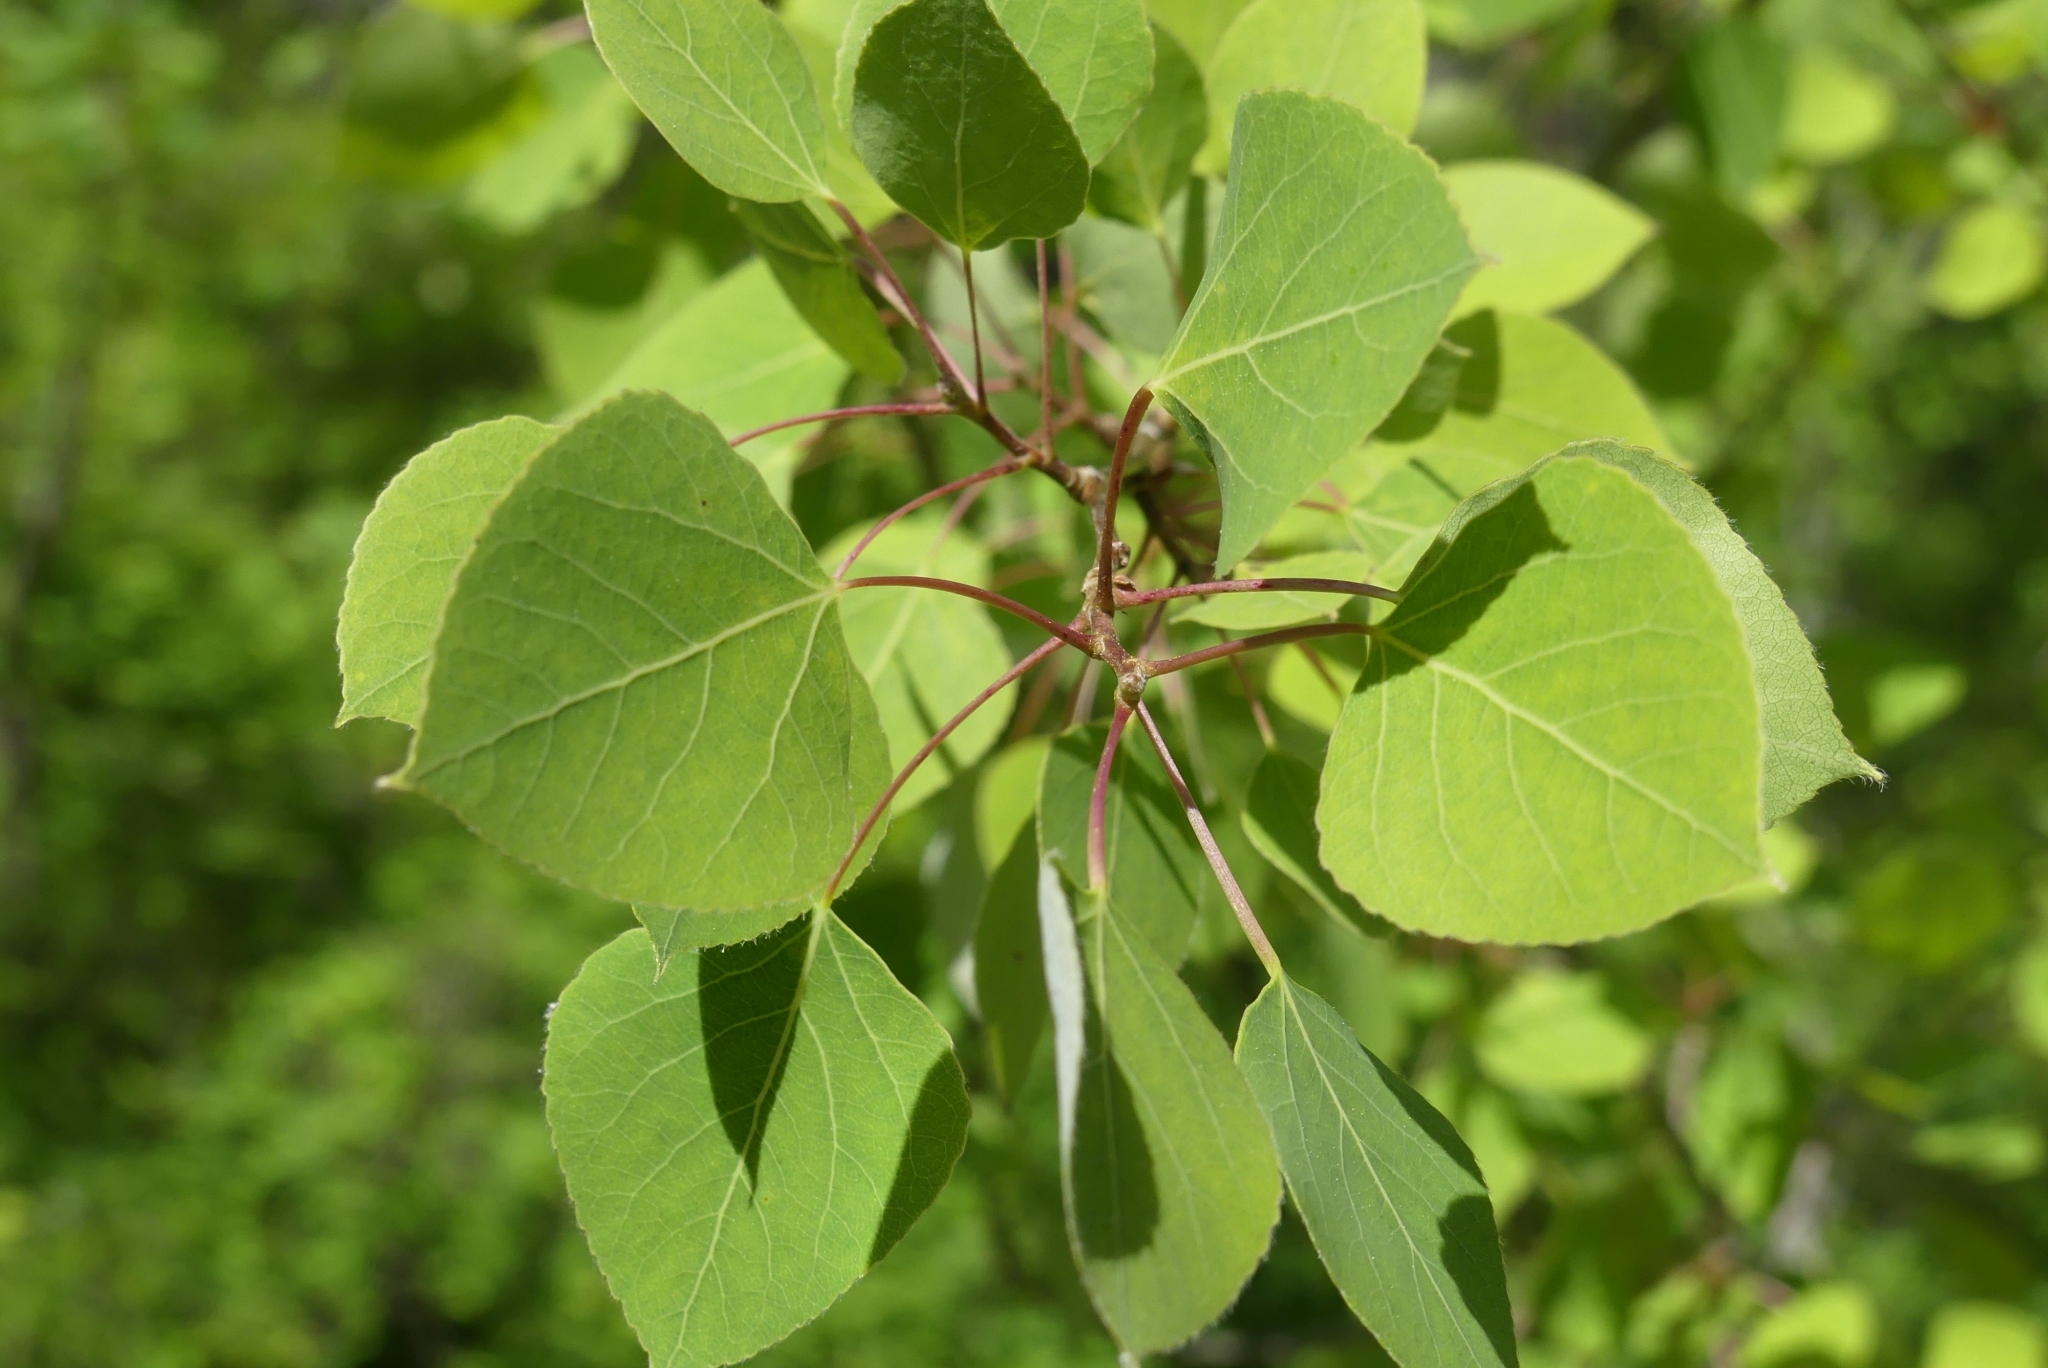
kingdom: Plantae
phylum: Tracheophyta
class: Magnoliopsida
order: Malpighiales
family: Salicaceae
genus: Populus
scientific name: Populus tremuloides
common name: Quaking aspen
